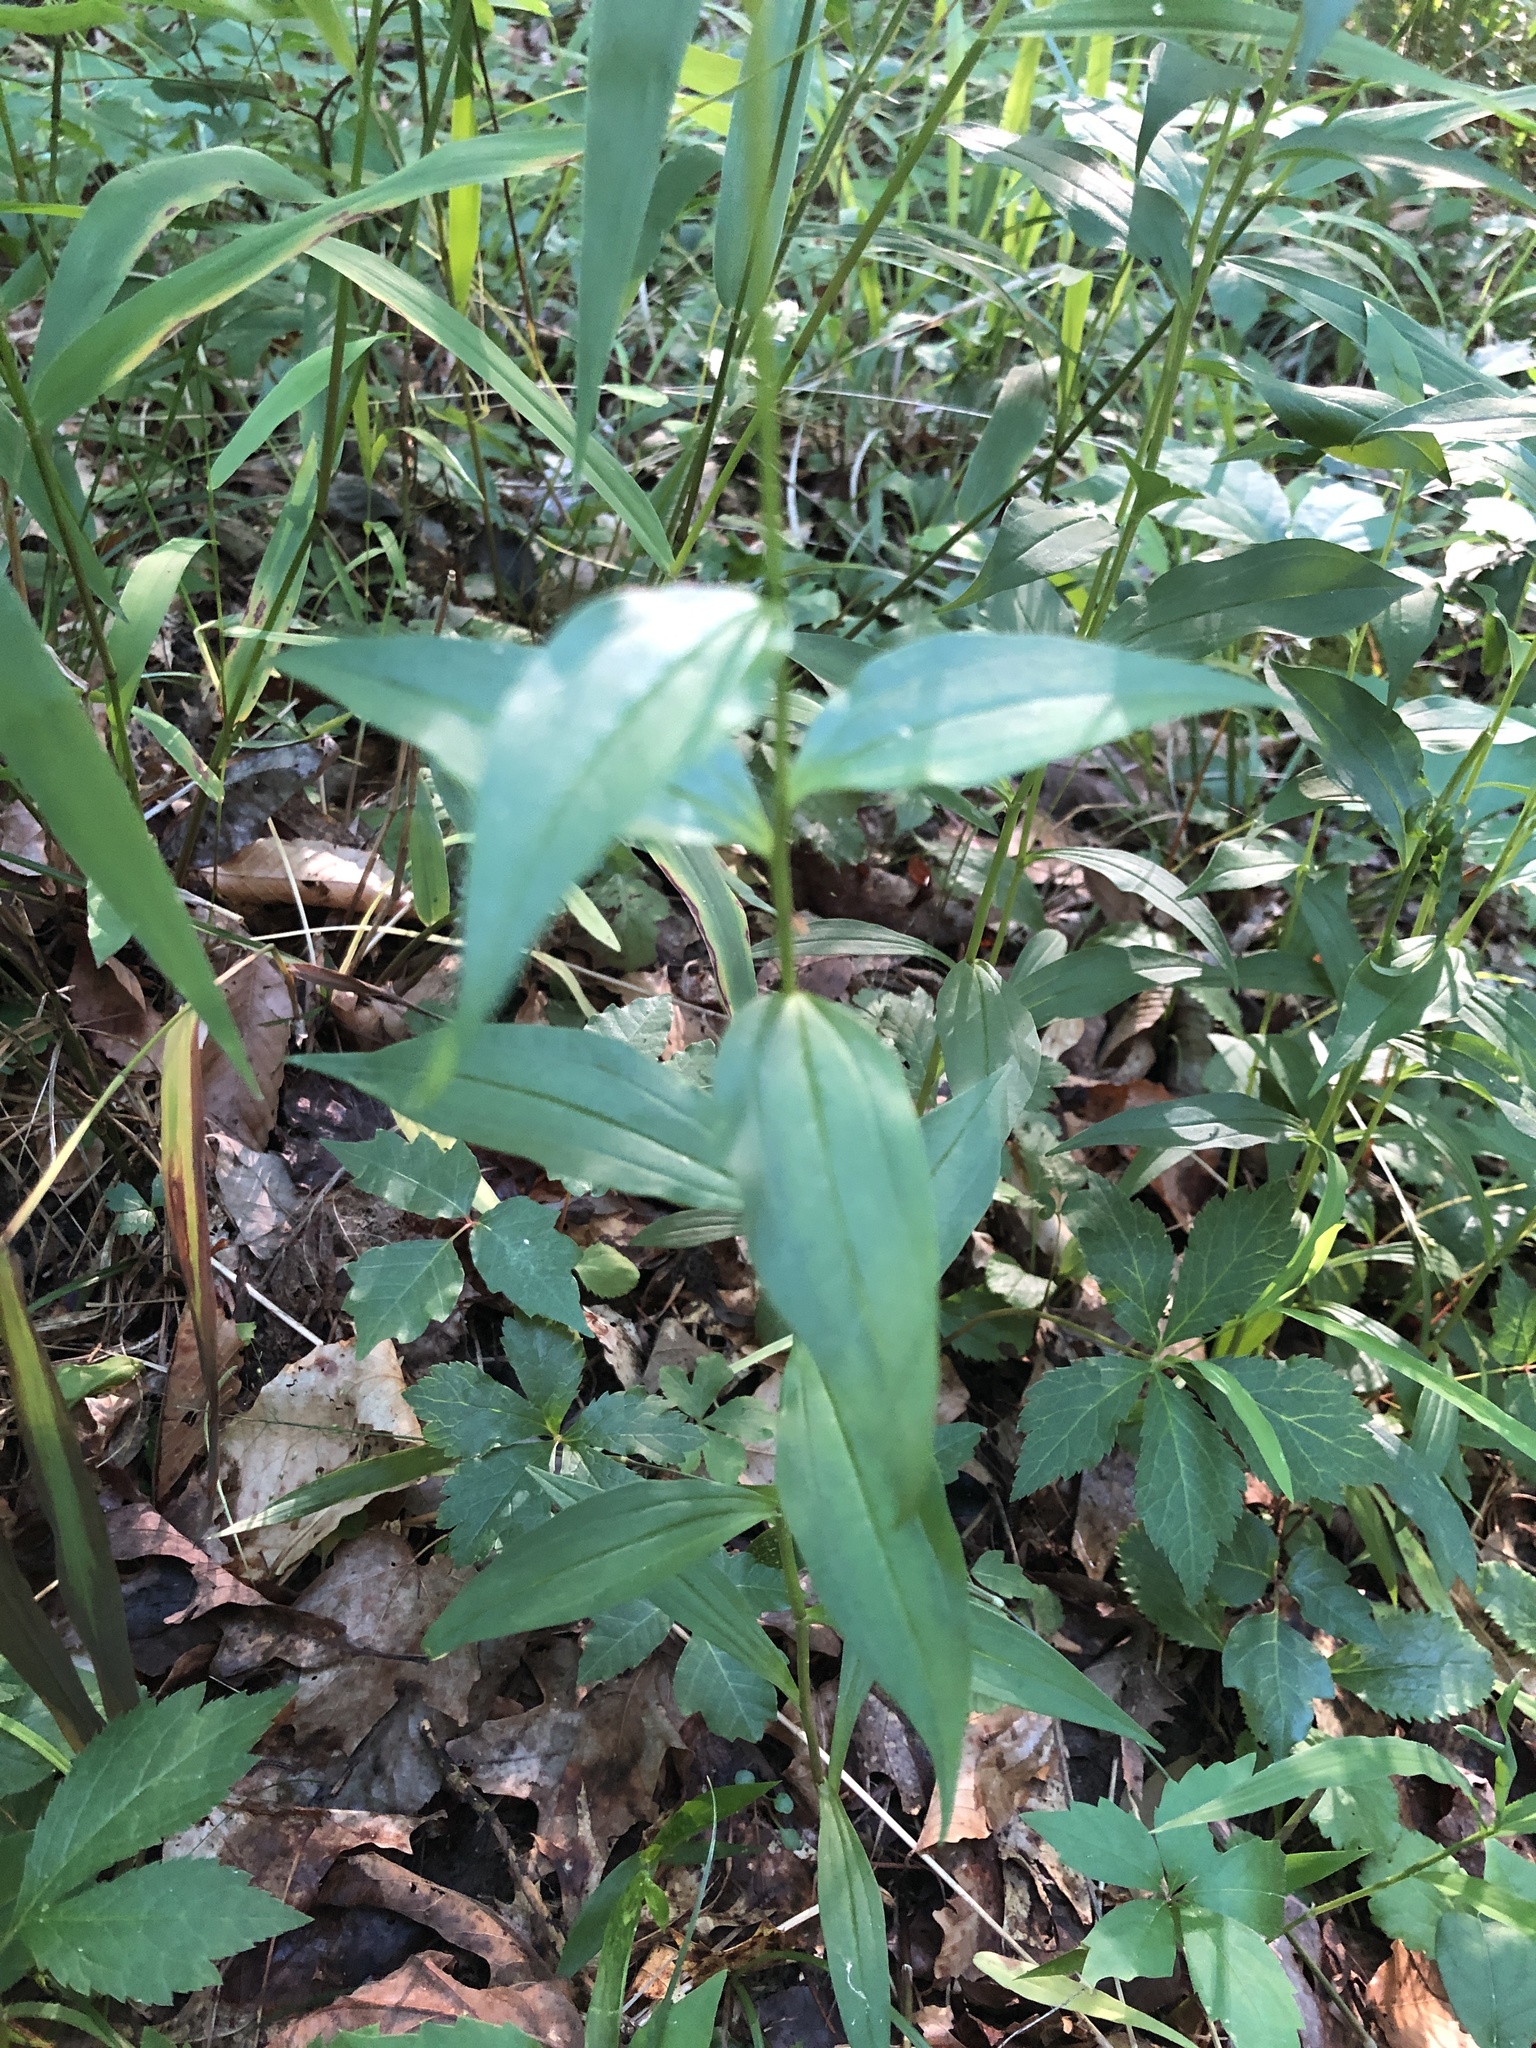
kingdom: Plantae
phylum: Tracheophyta
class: Magnoliopsida
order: Asterales
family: Asteraceae
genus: Marshallia
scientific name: Marshallia trinervia
